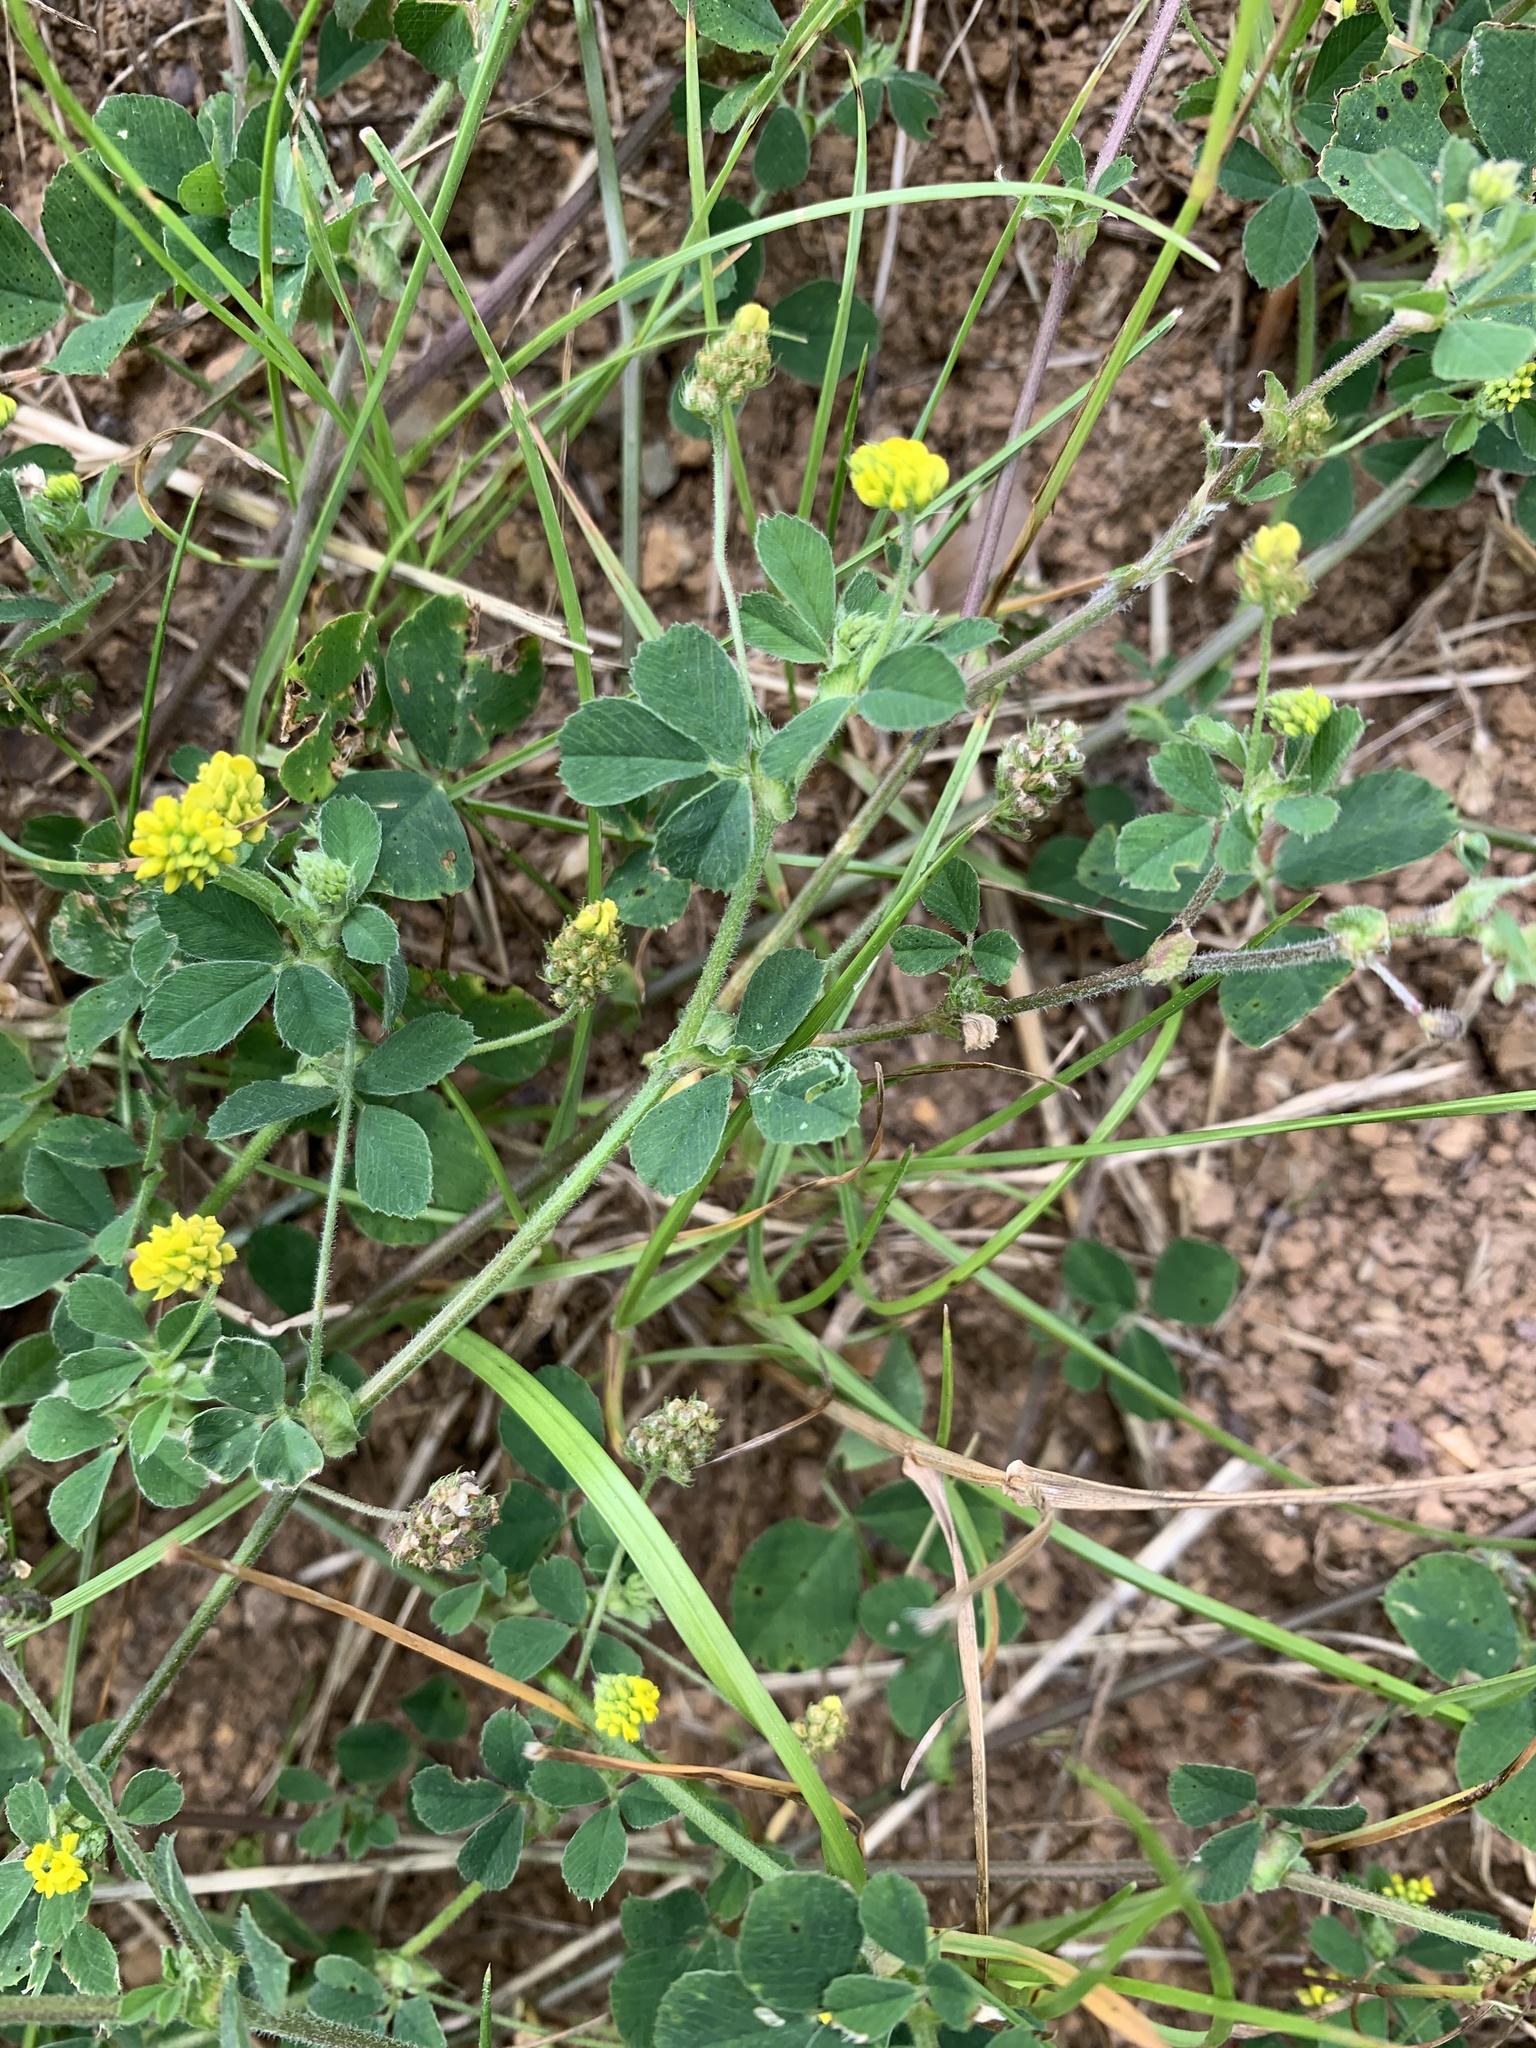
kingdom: Plantae
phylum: Tracheophyta
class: Magnoliopsida
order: Fabales
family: Fabaceae
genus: Medicago
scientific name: Medicago lupulina
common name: Black medick
